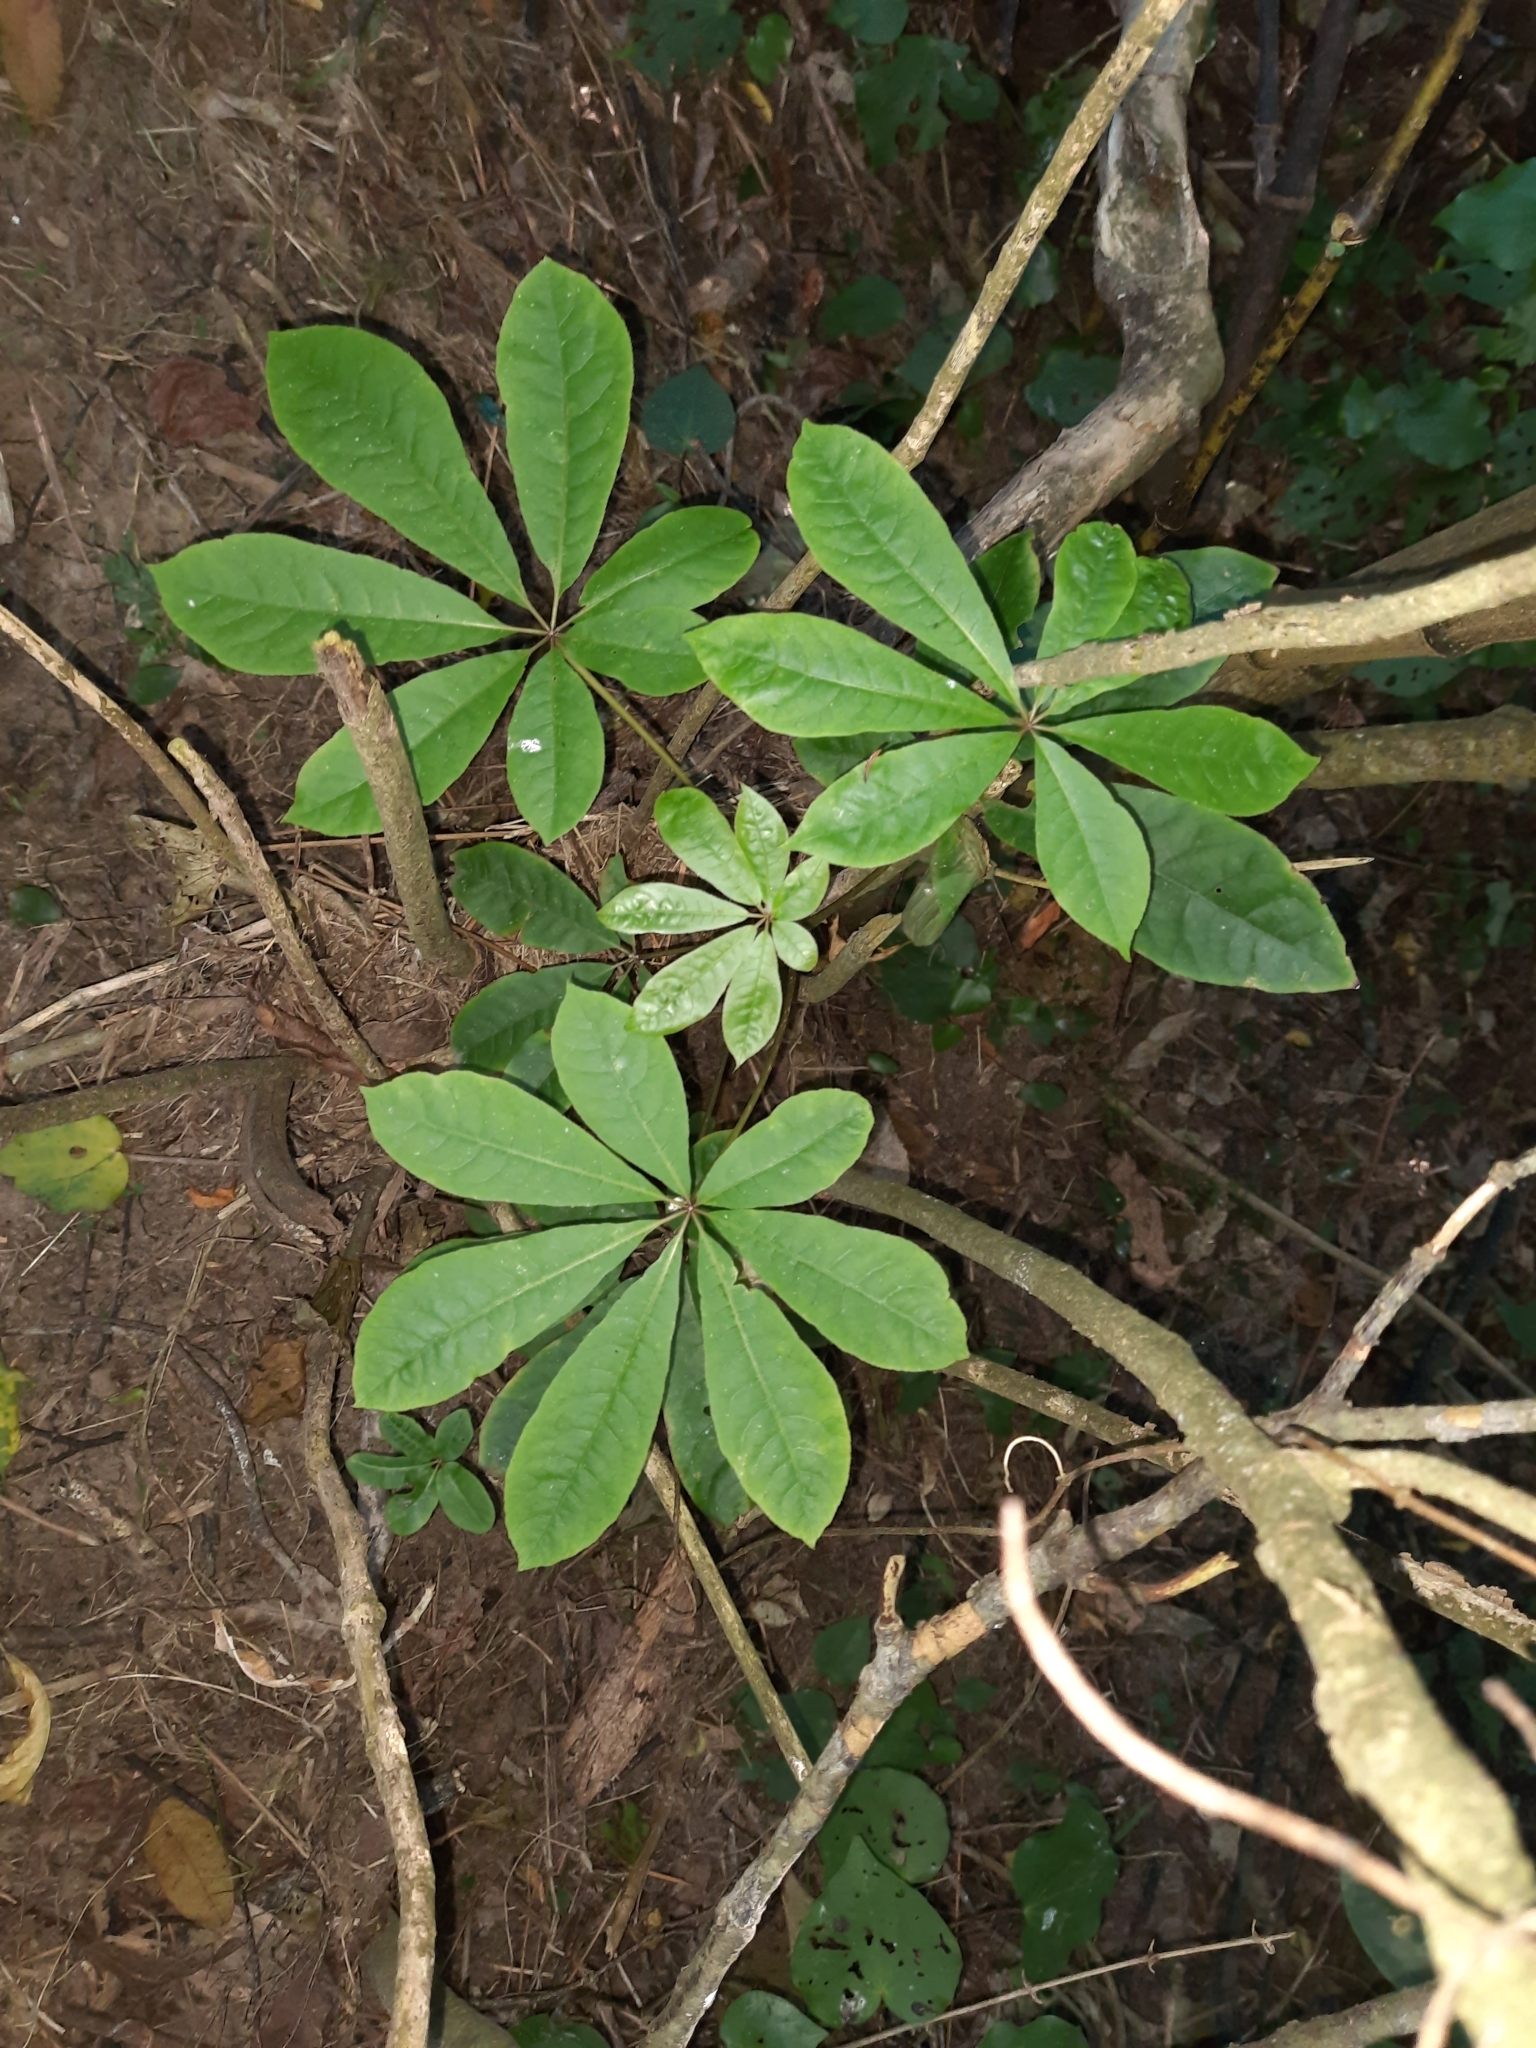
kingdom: Plantae
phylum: Tracheophyta
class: Magnoliopsida
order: Apiales
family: Araliaceae
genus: Schefflera
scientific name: Schefflera digitata
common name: Pate
